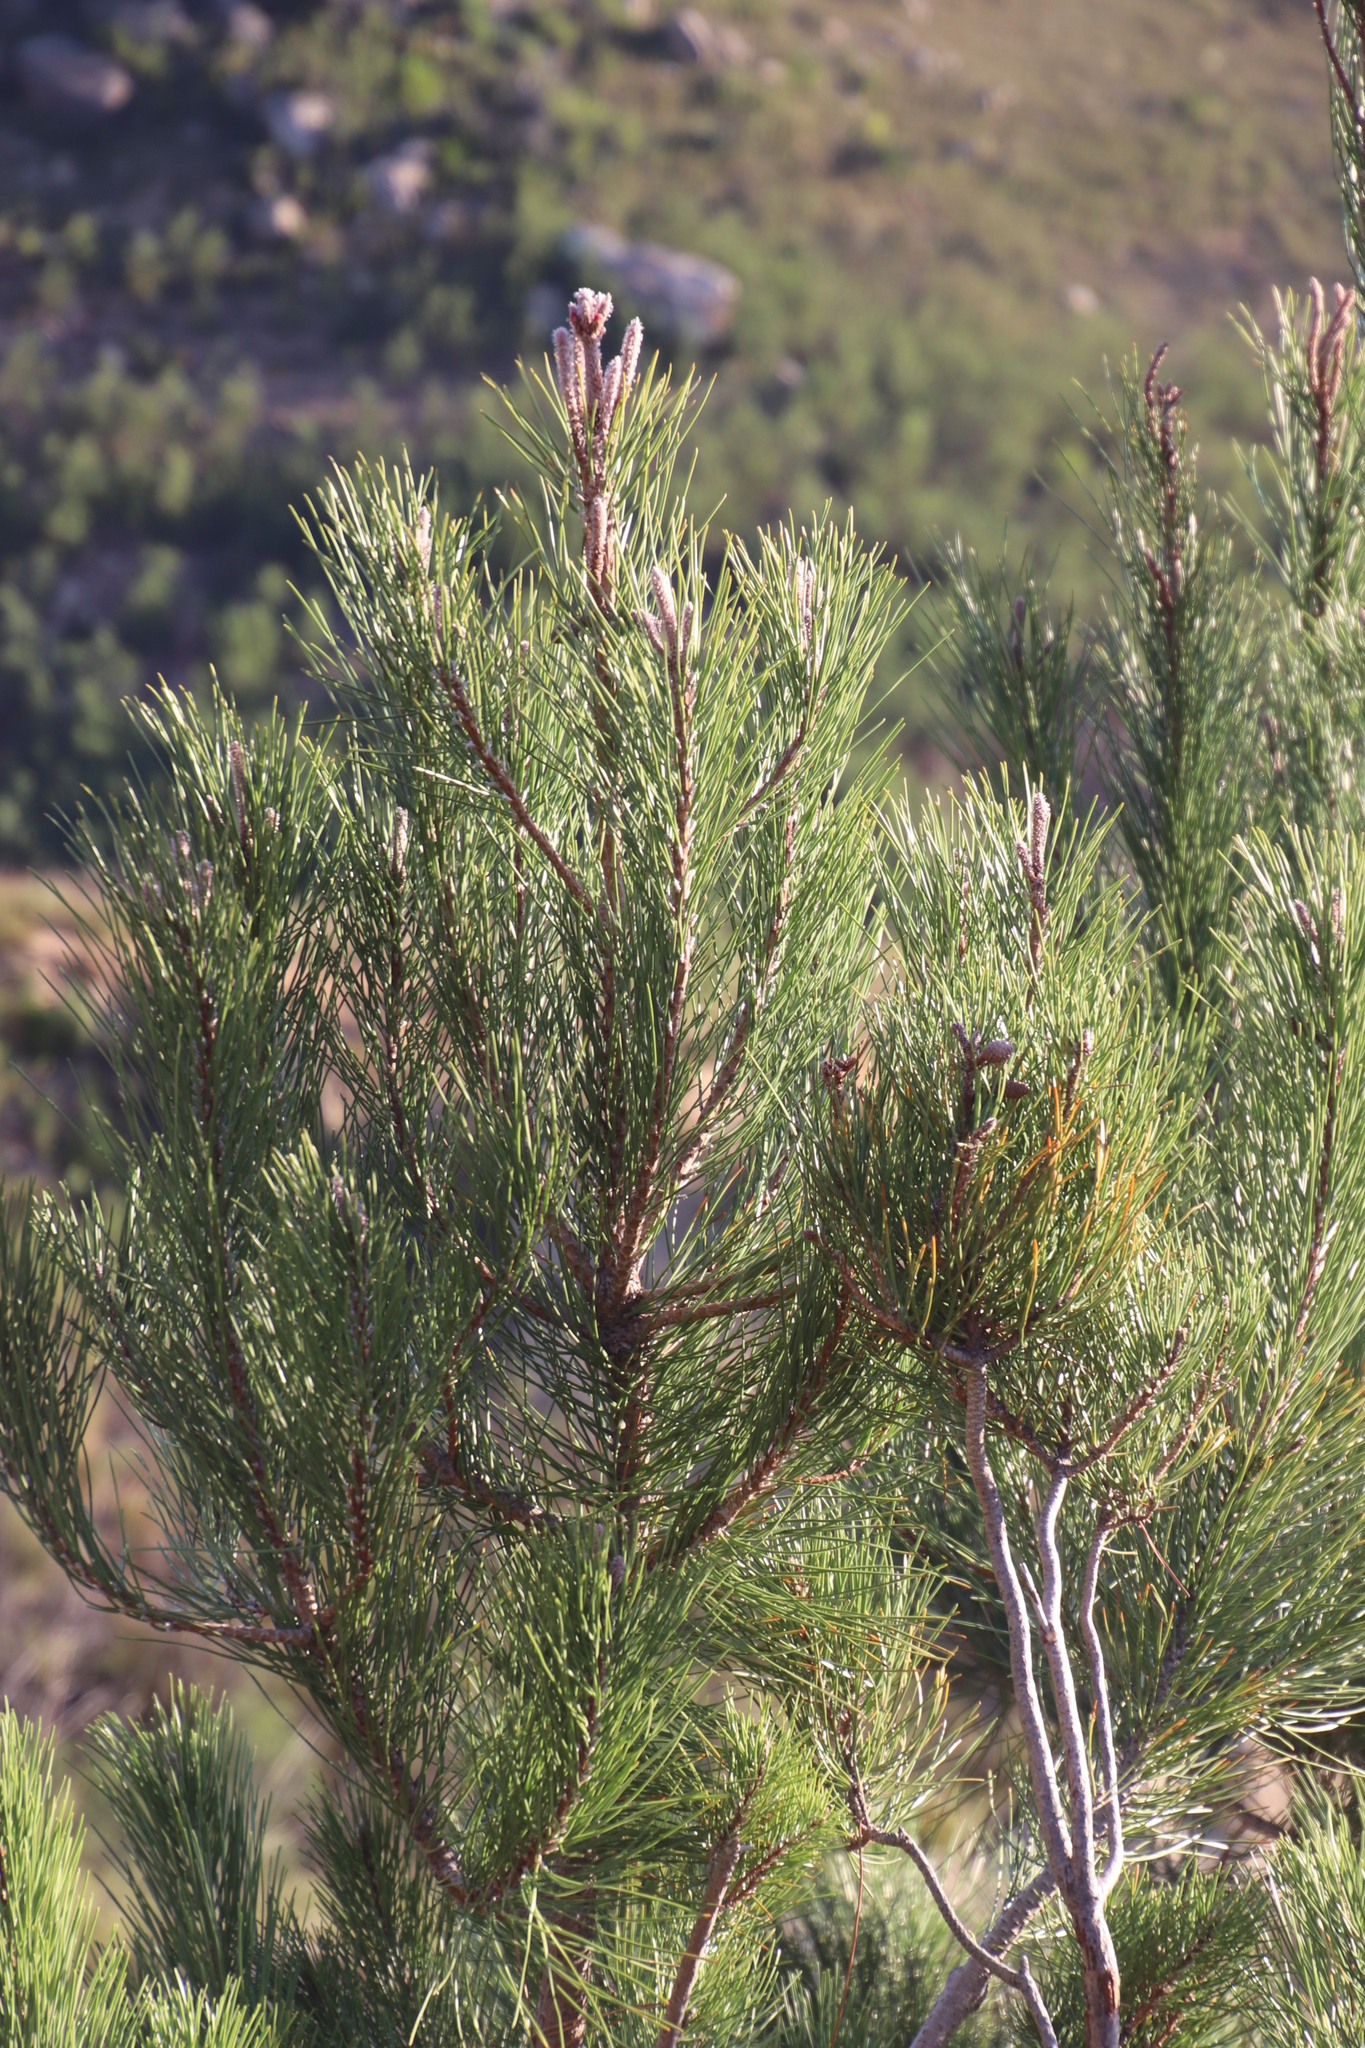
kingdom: Plantae
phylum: Tracheophyta
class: Pinopsida
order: Pinales
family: Pinaceae
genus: Pinus
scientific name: Pinus pinaster
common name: Maritime pine
